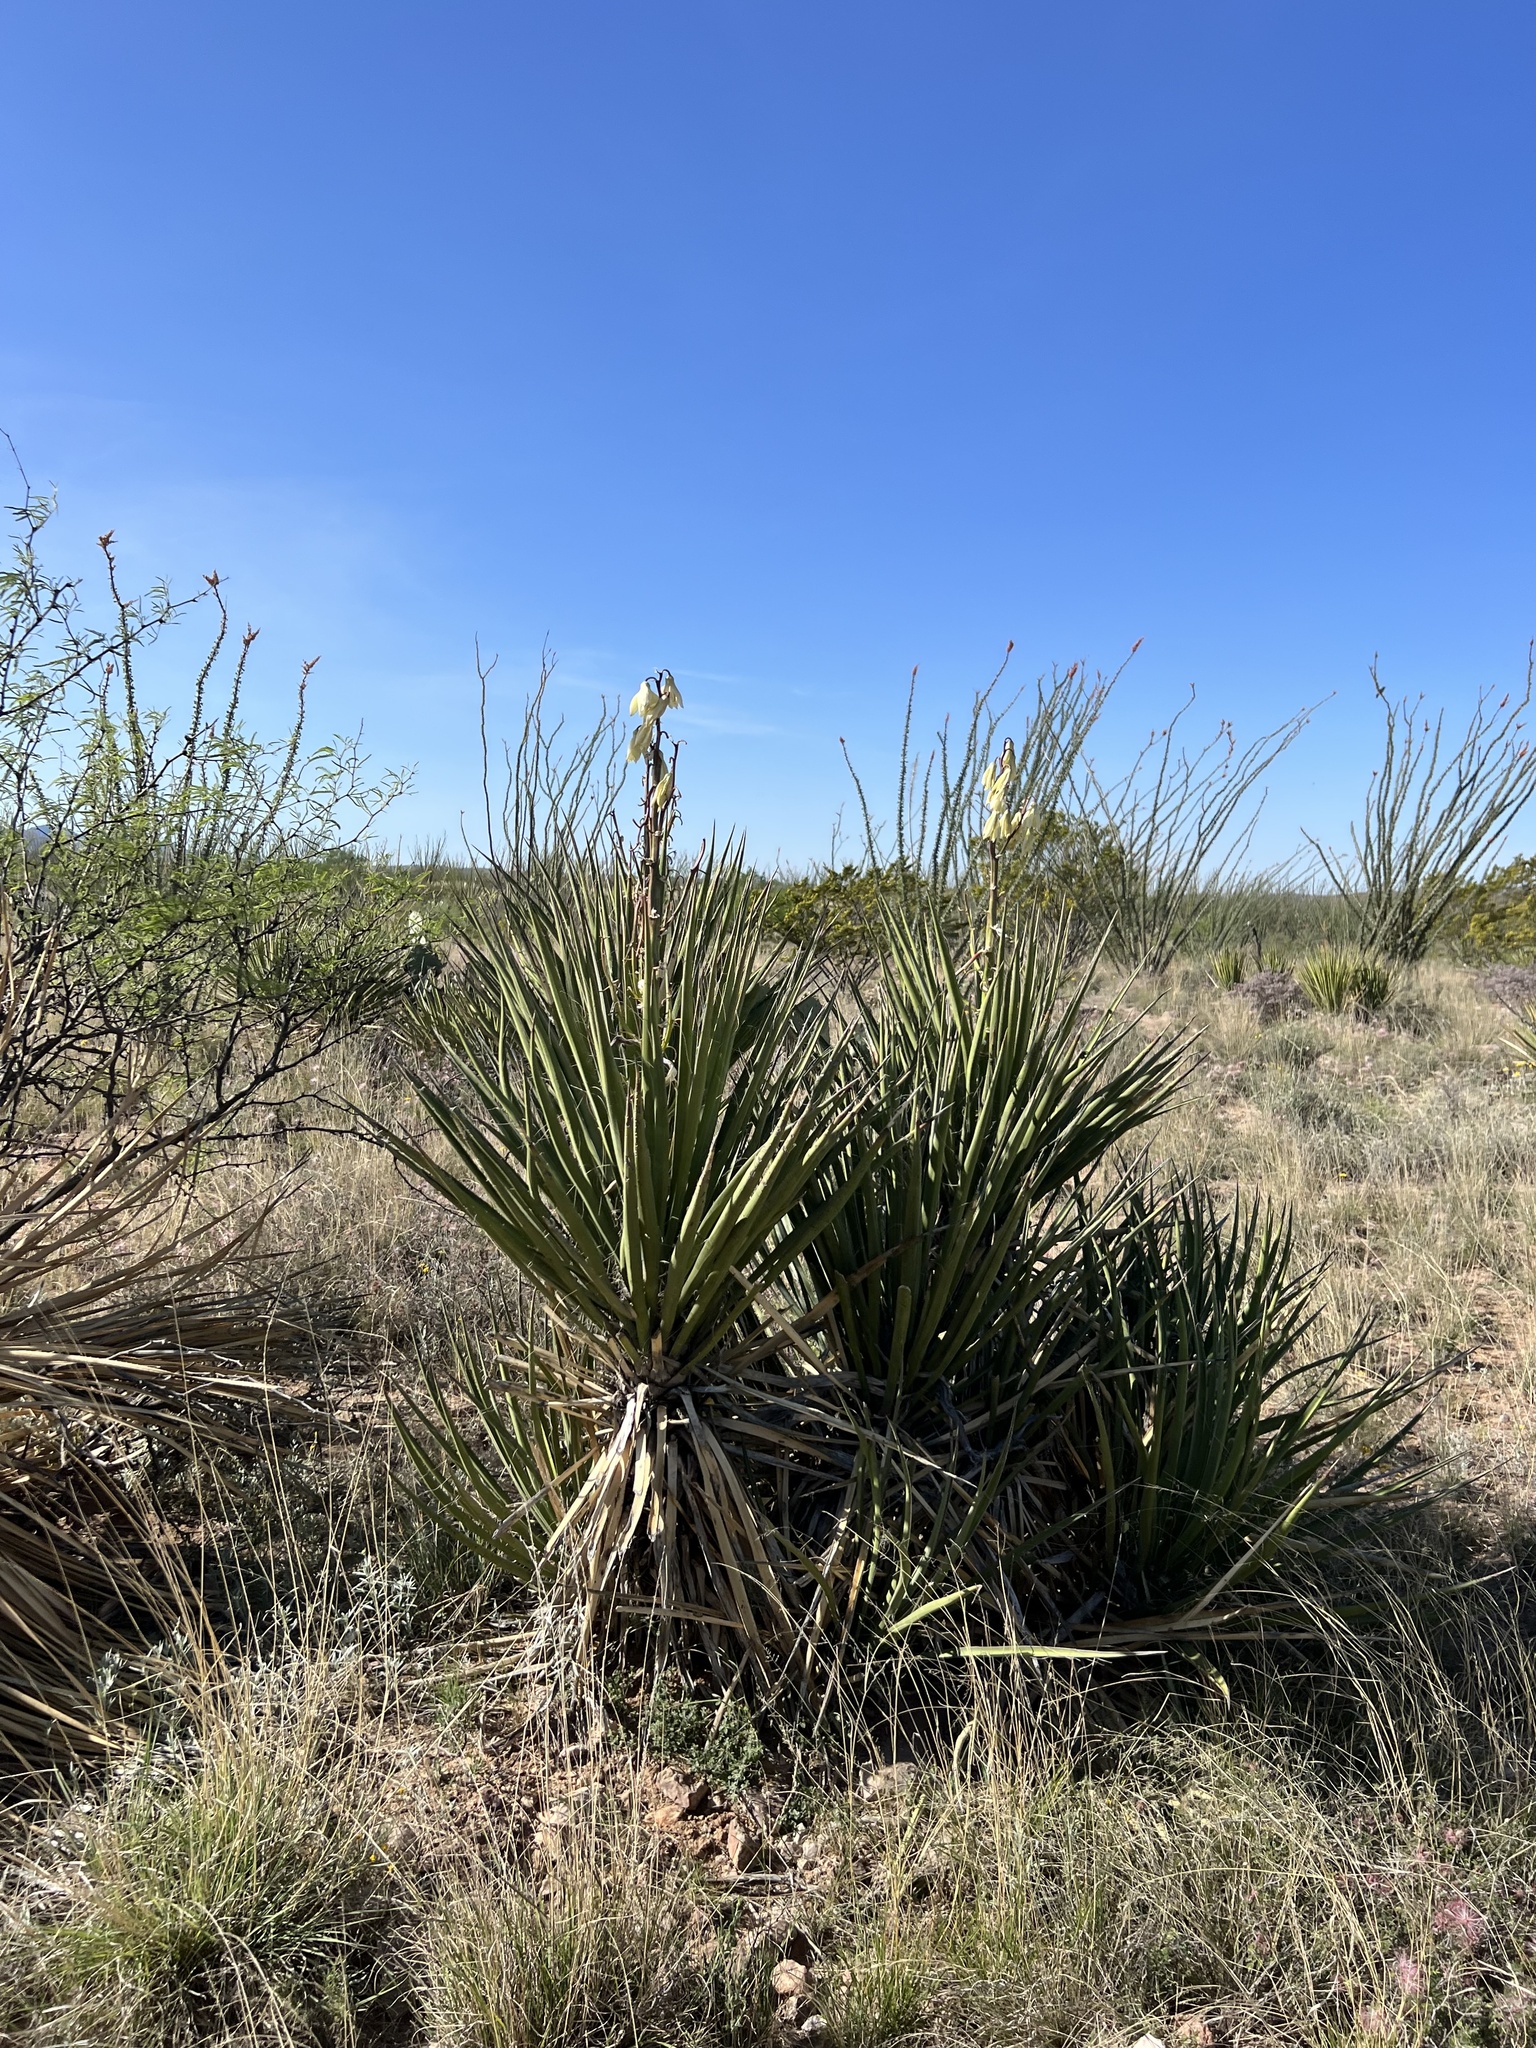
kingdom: Plantae
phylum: Tracheophyta
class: Liliopsida
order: Asparagales
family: Asparagaceae
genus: Yucca
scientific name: Yucca baccata
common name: Banana yucca
